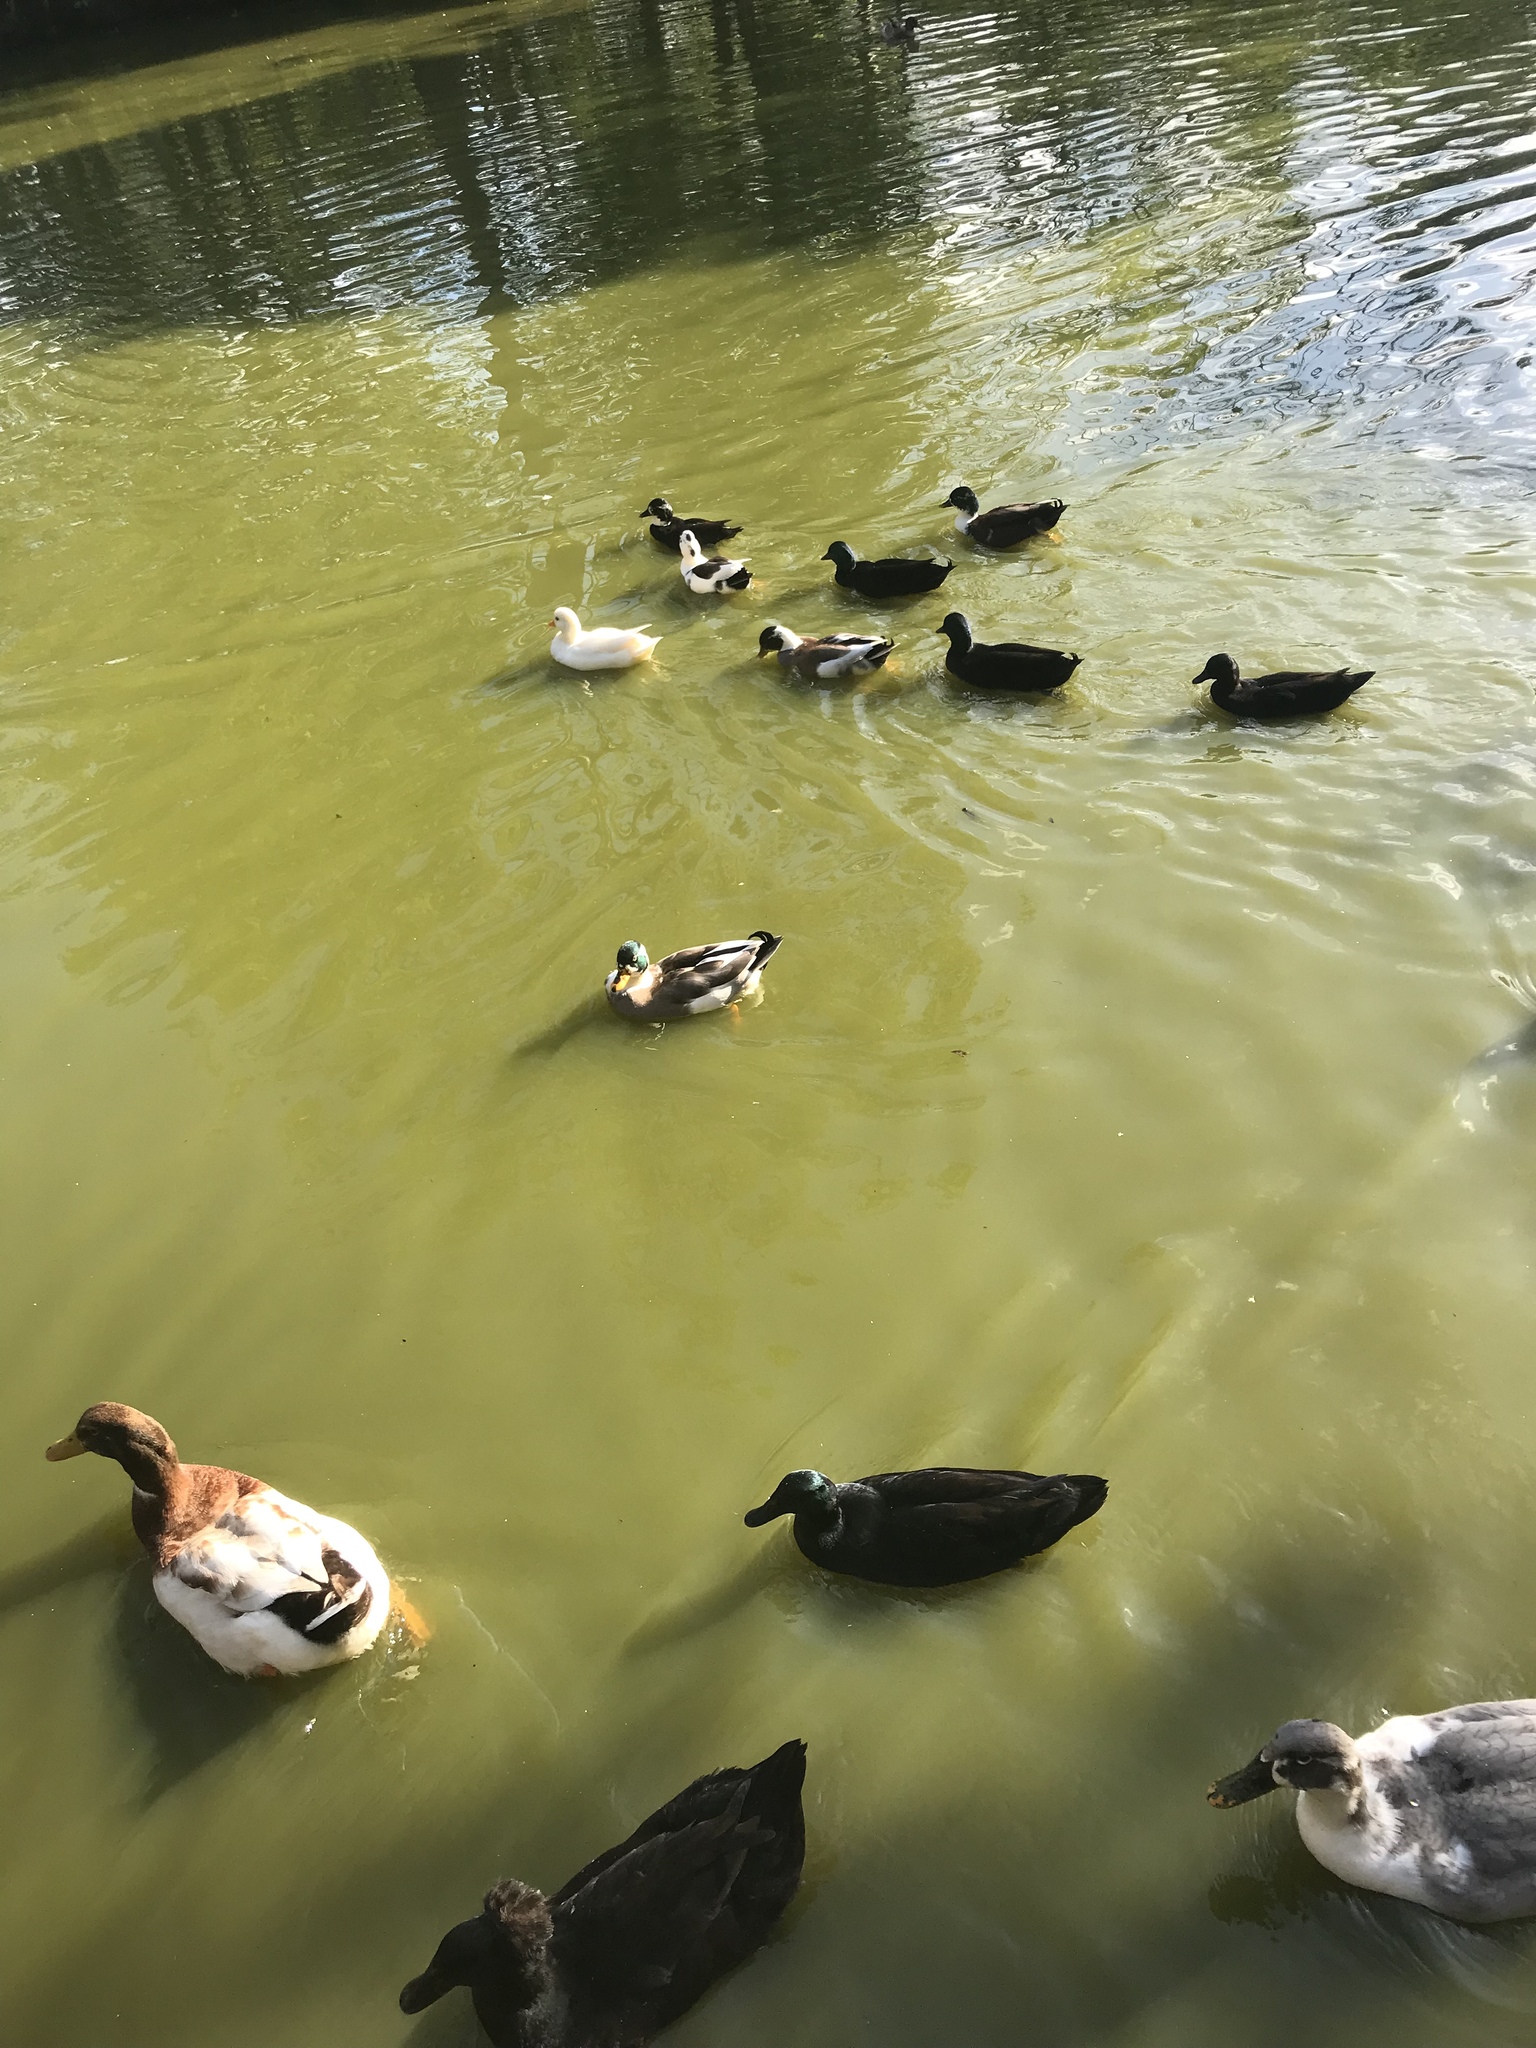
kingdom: Animalia
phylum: Chordata
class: Aves
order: Anseriformes
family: Anatidae
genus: Anas
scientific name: Anas platyrhynchos
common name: Mallard
